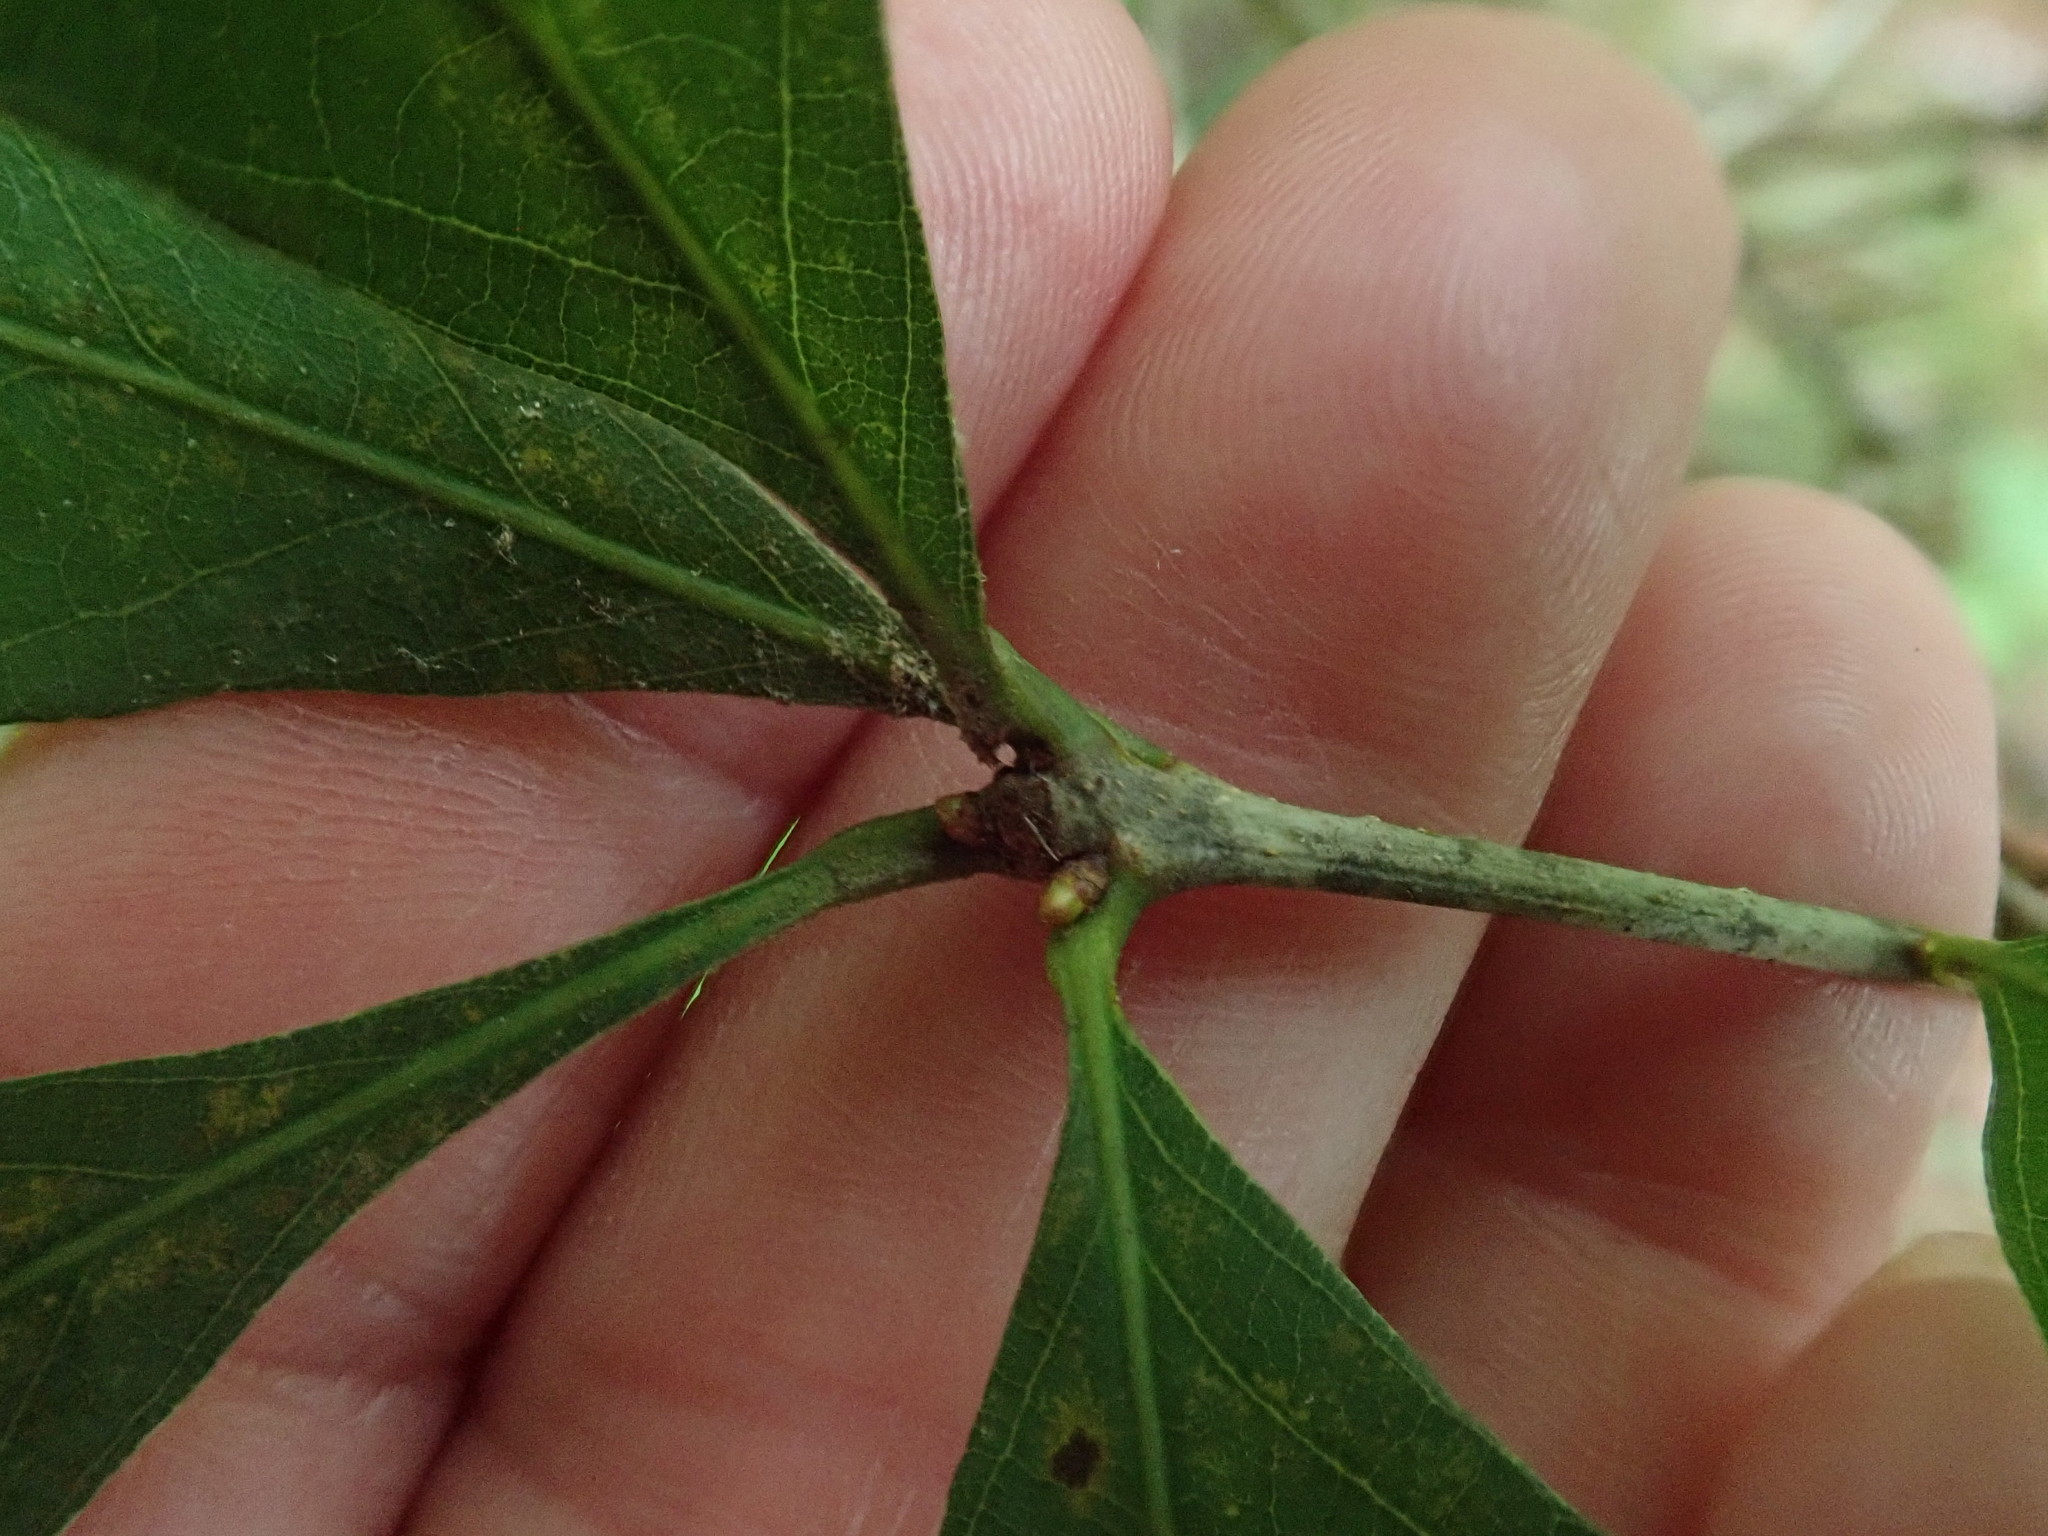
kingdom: Plantae
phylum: Tracheophyta
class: Magnoliopsida
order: Fagales
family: Fagaceae
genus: Quercus
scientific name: Quercus alba
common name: White oak
